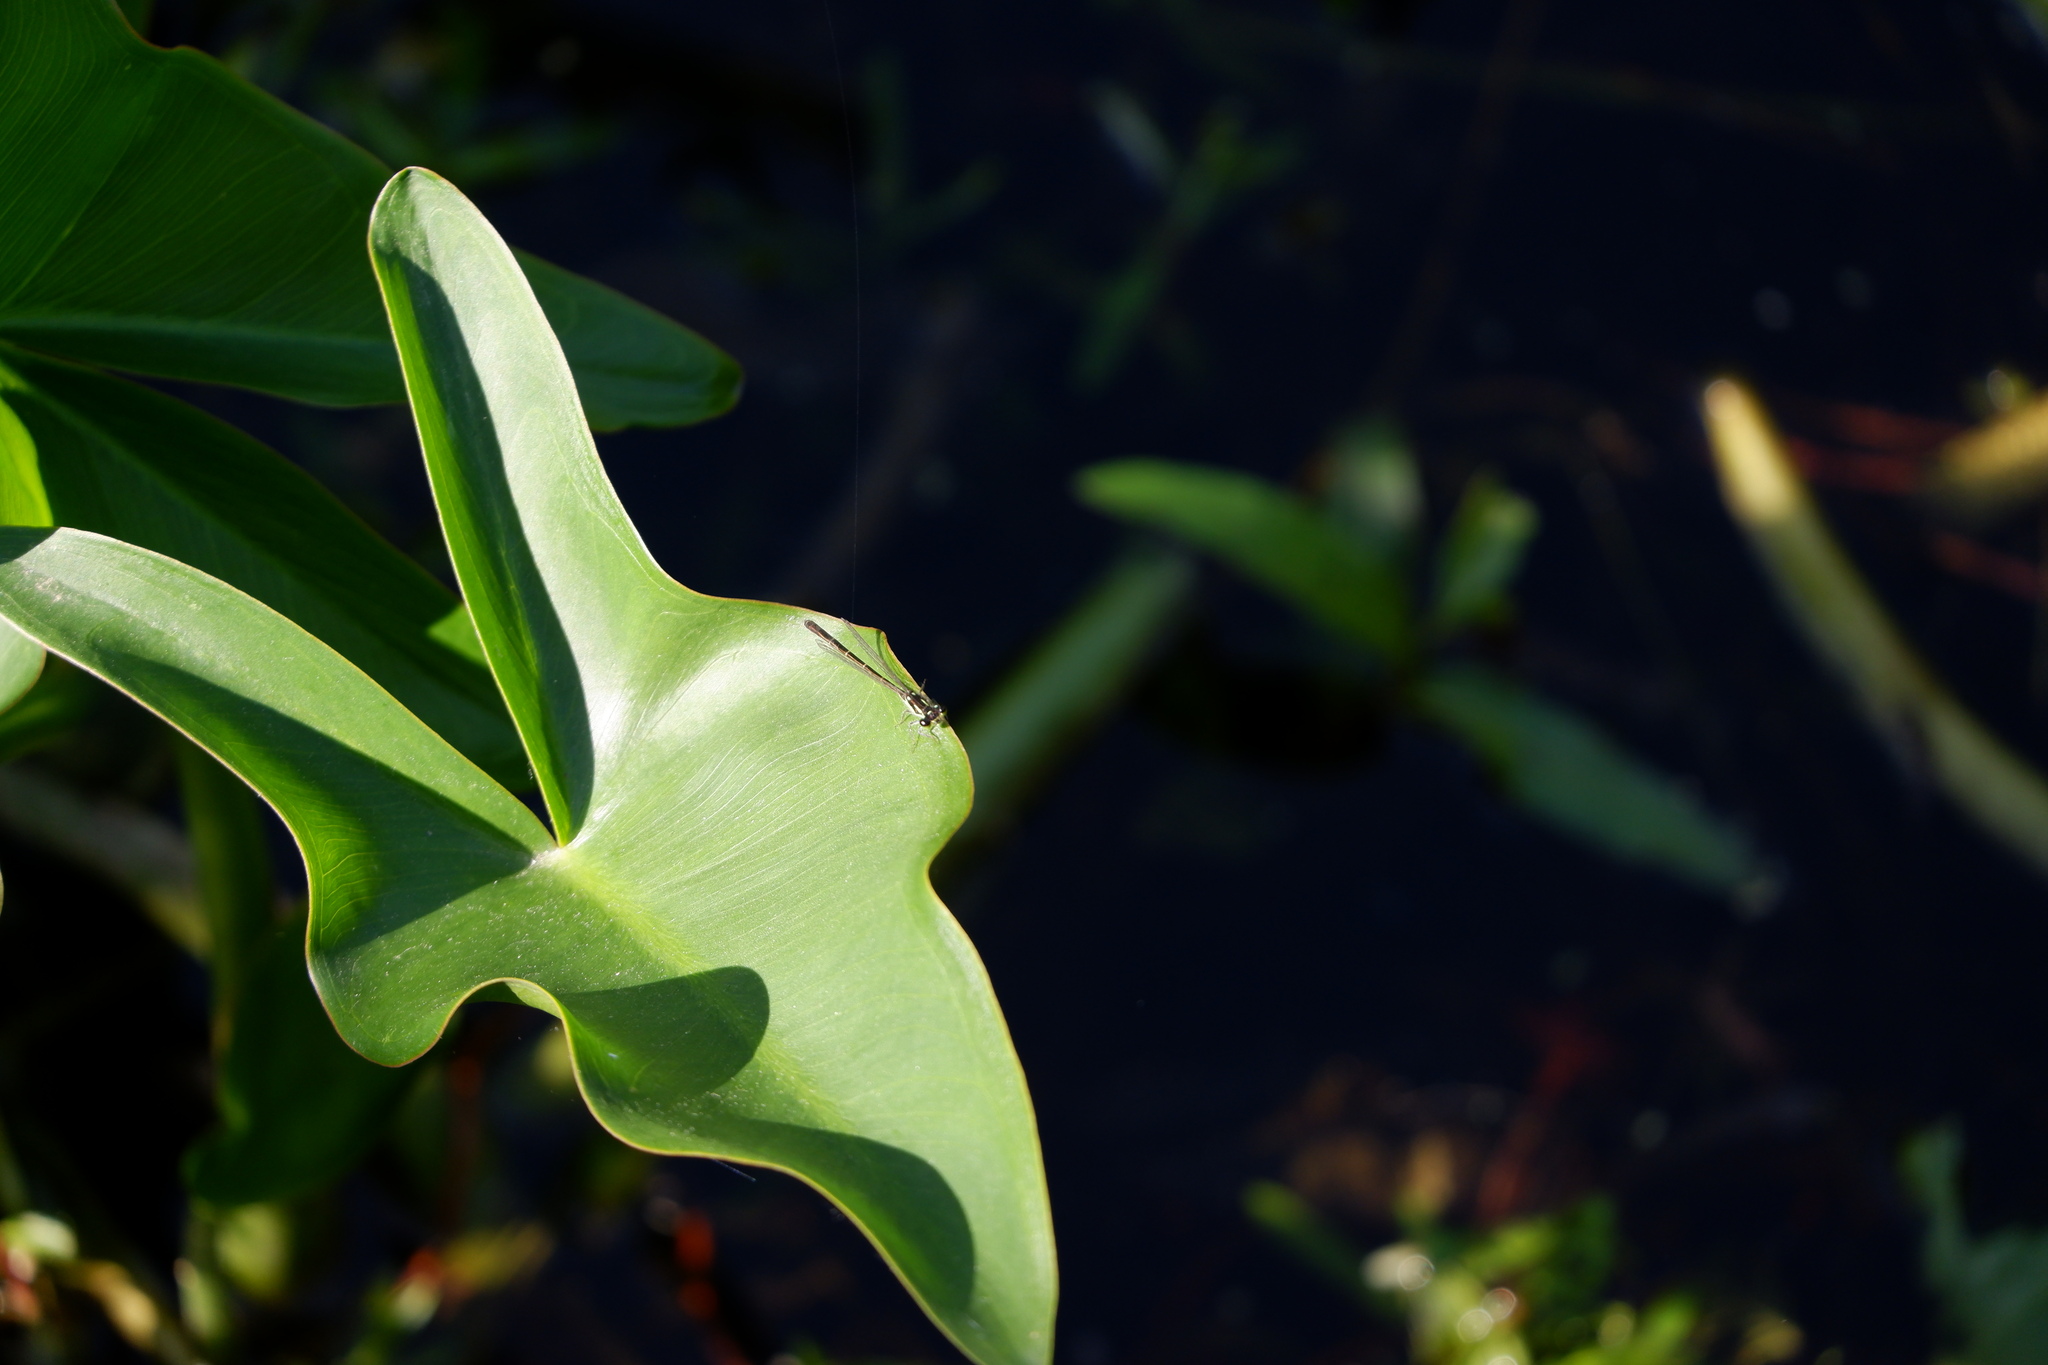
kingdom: Animalia
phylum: Arthropoda
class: Insecta
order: Odonata
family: Coenagrionidae
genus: Ischnura
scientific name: Ischnura posita
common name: Fragile forktail
